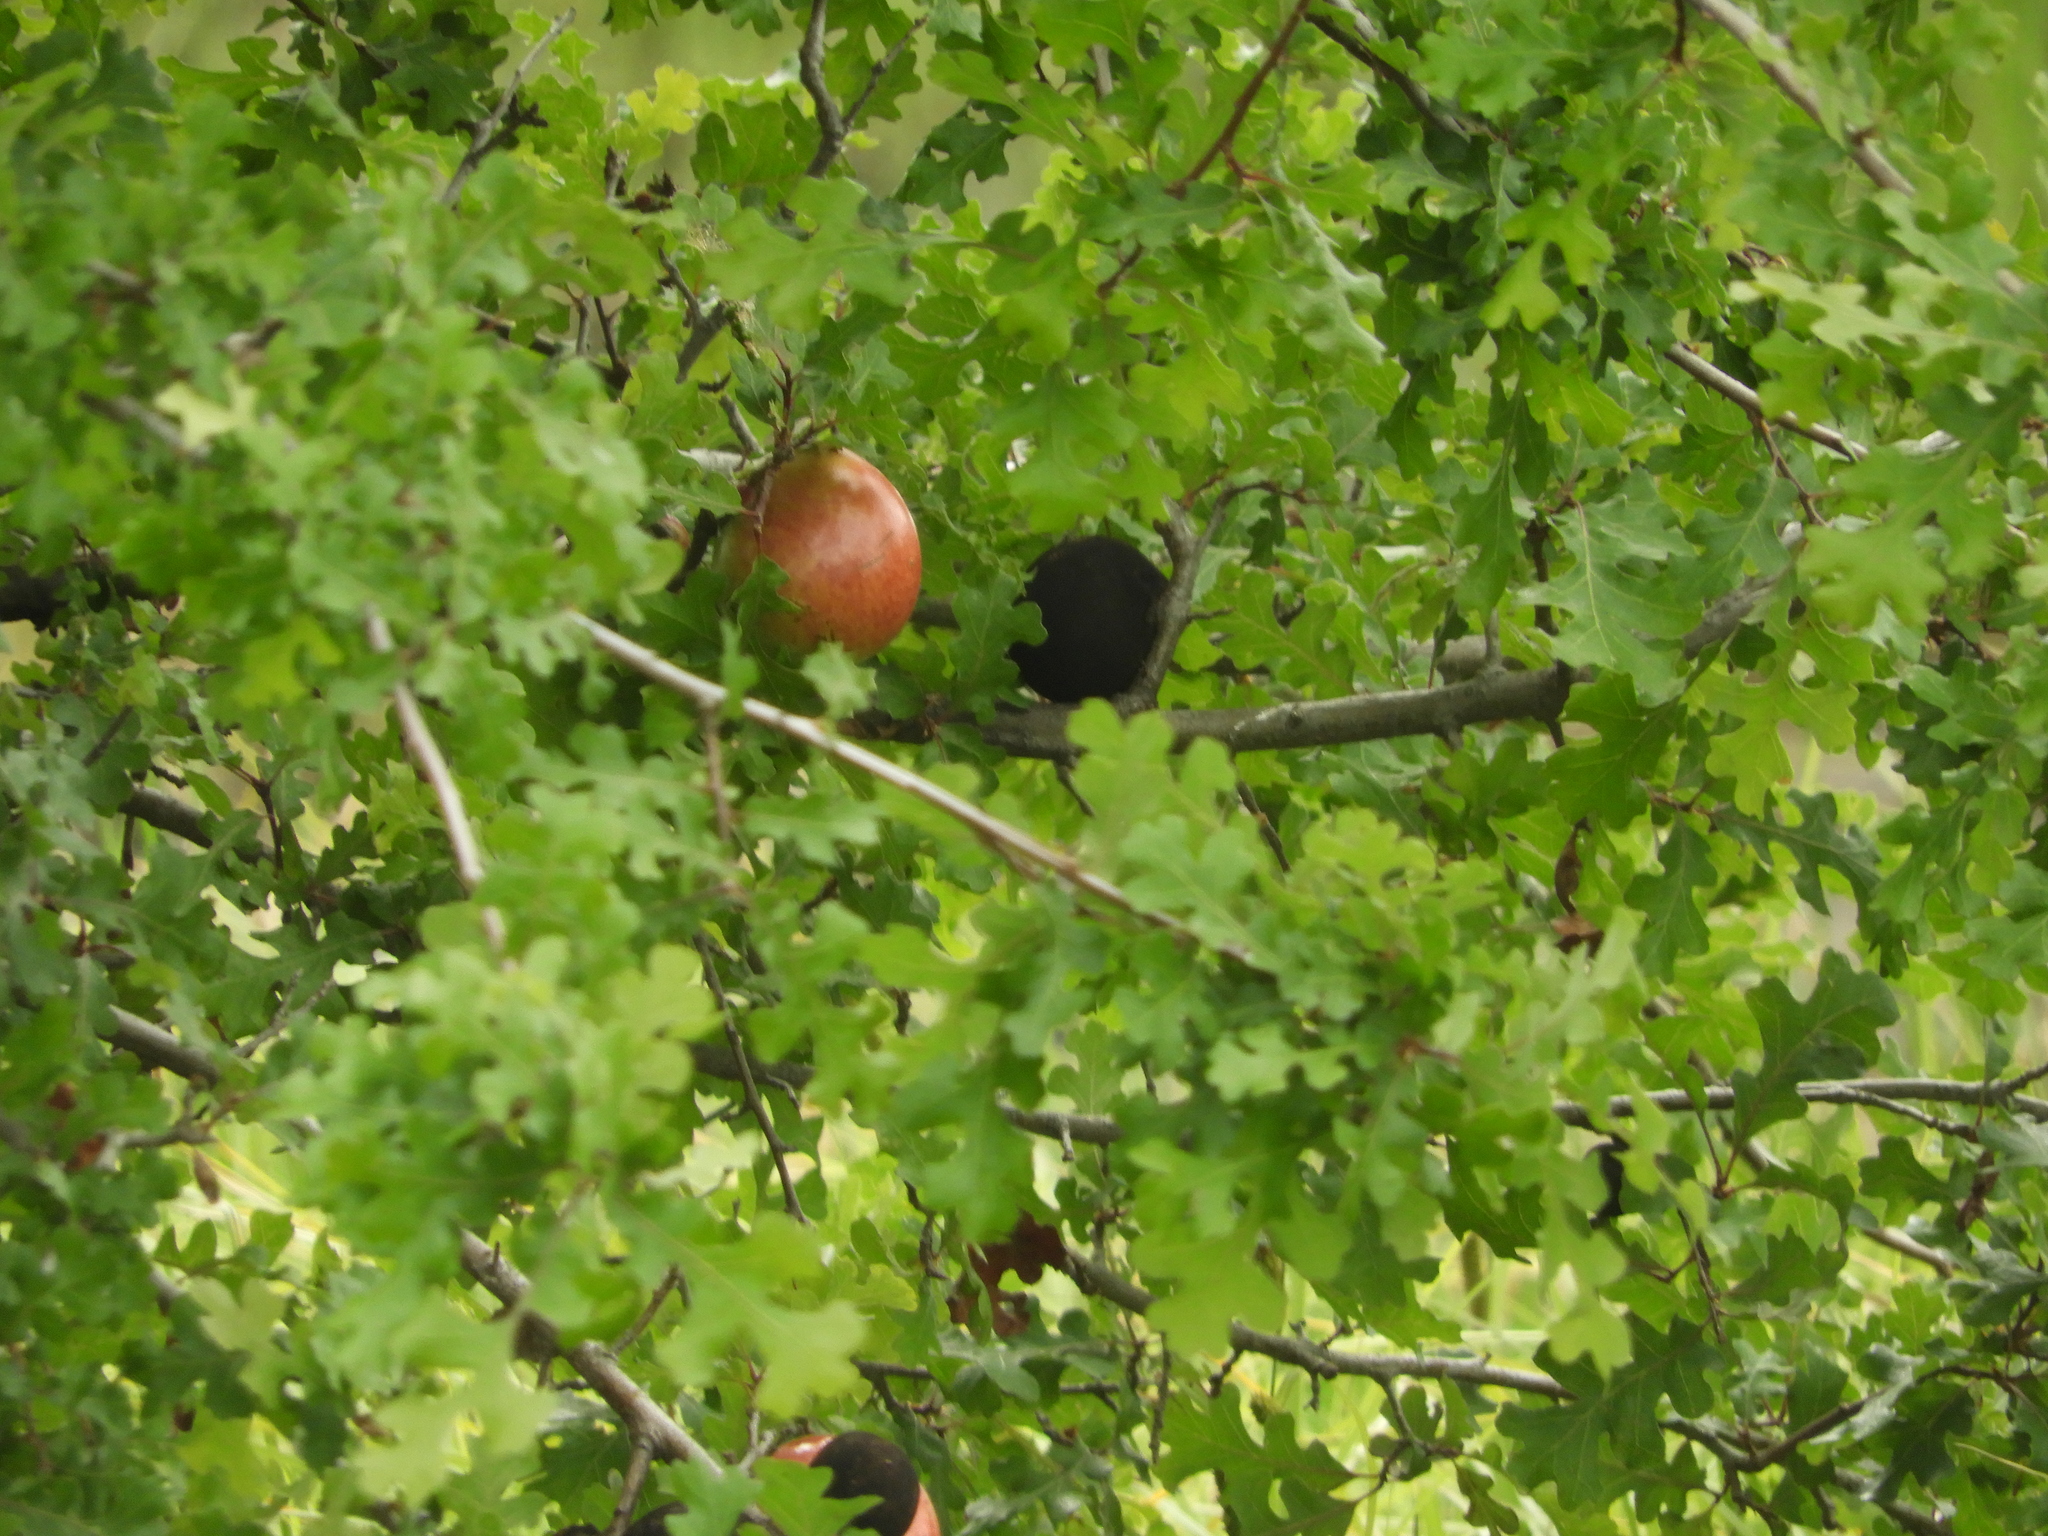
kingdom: Animalia
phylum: Arthropoda
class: Insecta
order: Hymenoptera
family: Cynipidae
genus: Andricus
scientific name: Andricus quercuscalifornicus
